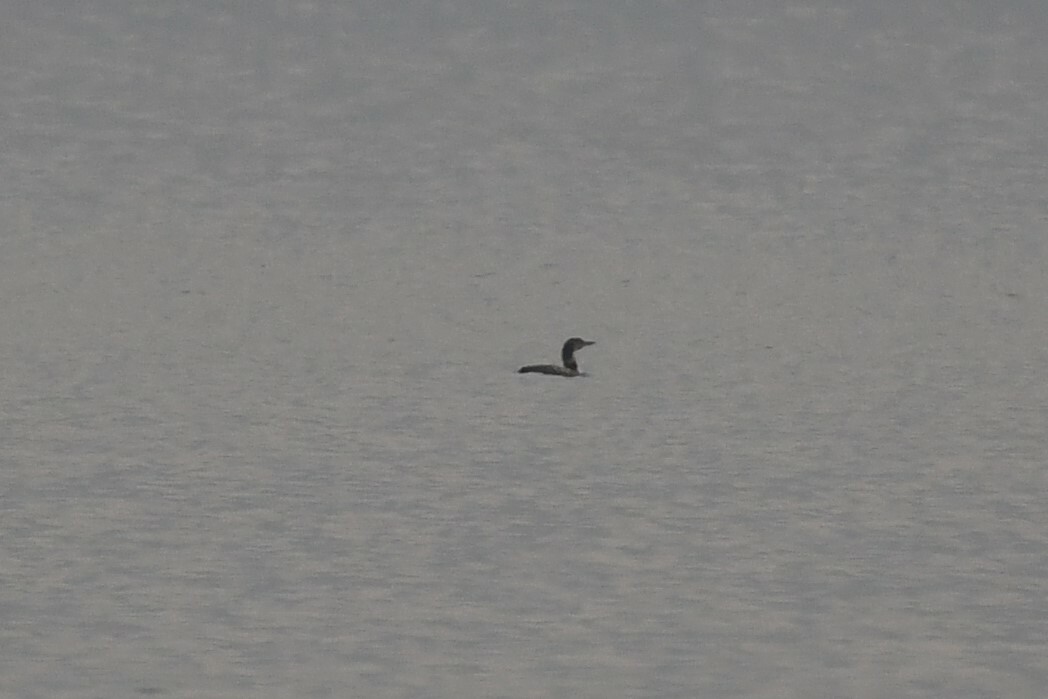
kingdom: Animalia
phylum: Chordata
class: Aves
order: Gaviiformes
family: Gaviidae
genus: Gavia
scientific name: Gavia immer
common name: Common loon
